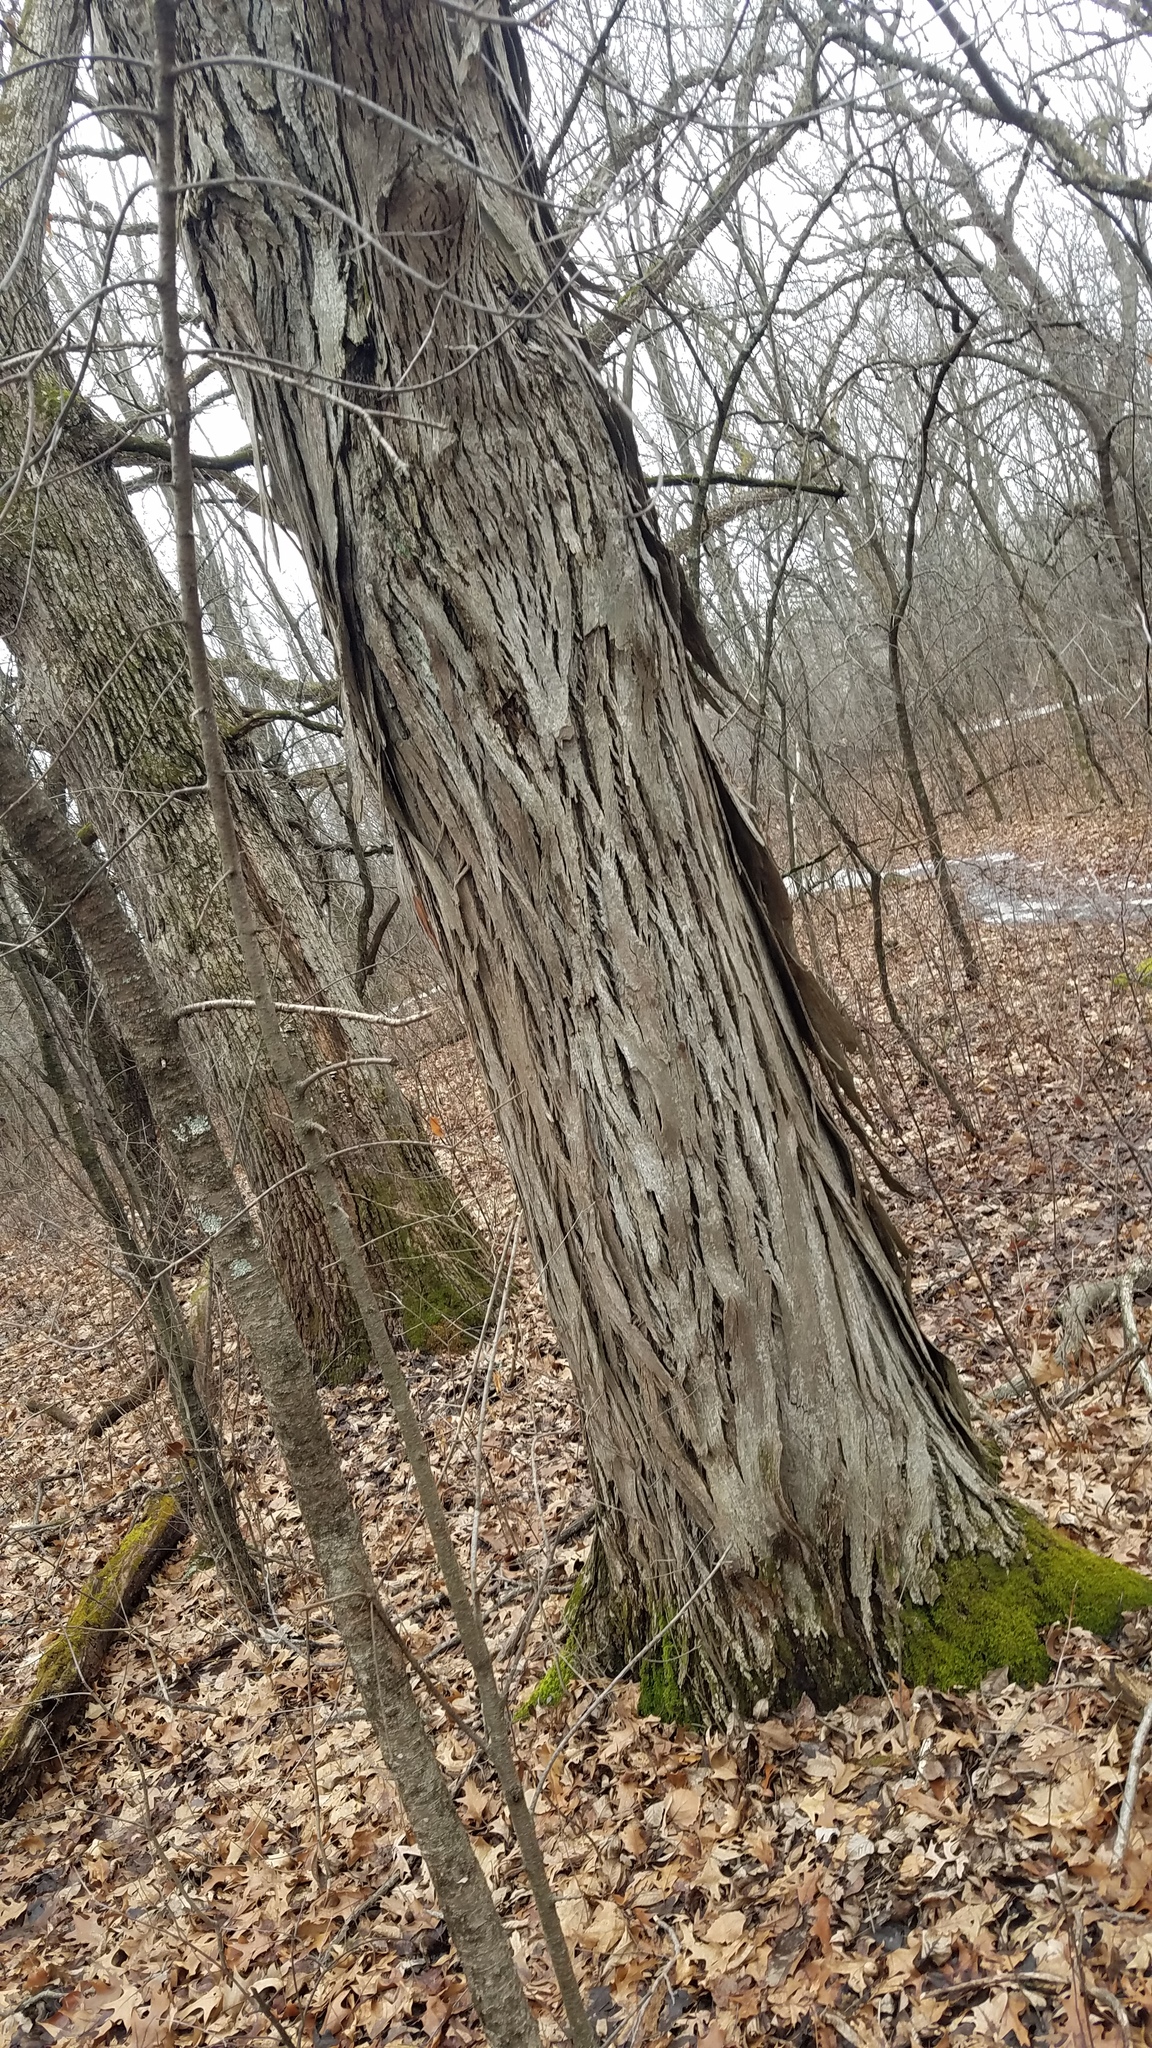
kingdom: Plantae
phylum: Tracheophyta
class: Magnoliopsida
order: Fagales
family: Juglandaceae
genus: Carya
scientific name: Carya ovata
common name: Shagbark hickory
